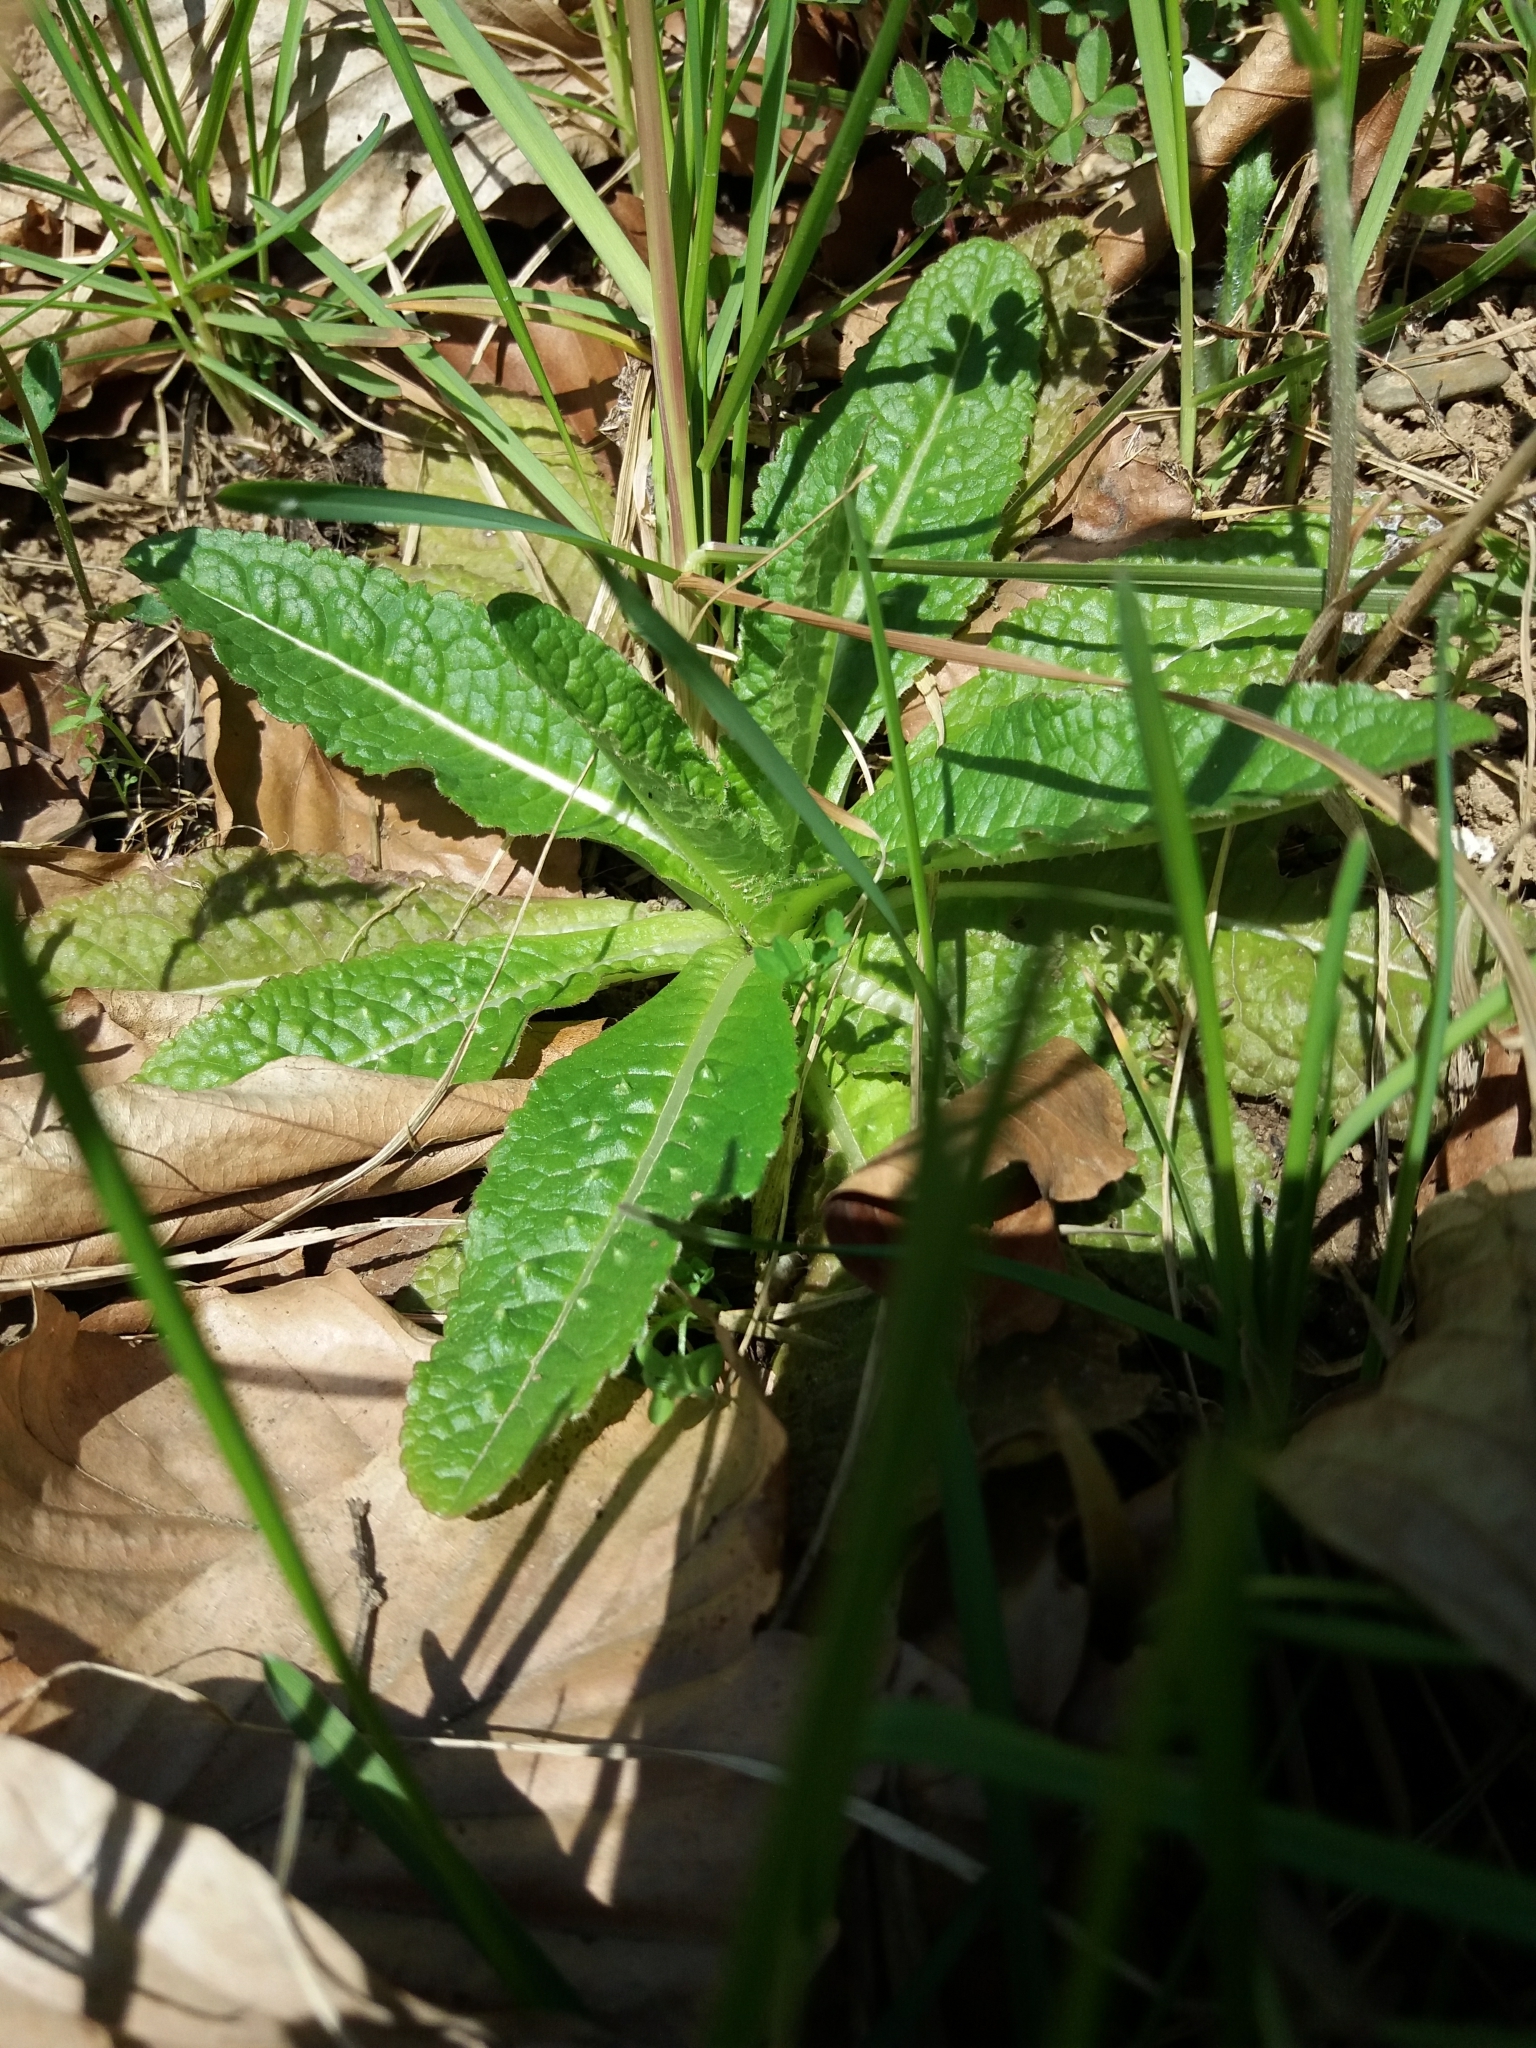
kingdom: Plantae
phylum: Tracheophyta
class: Magnoliopsida
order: Dipsacales
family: Caprifoliaceae
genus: Dipsacus
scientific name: Dipsacus fullonum
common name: Teasel
